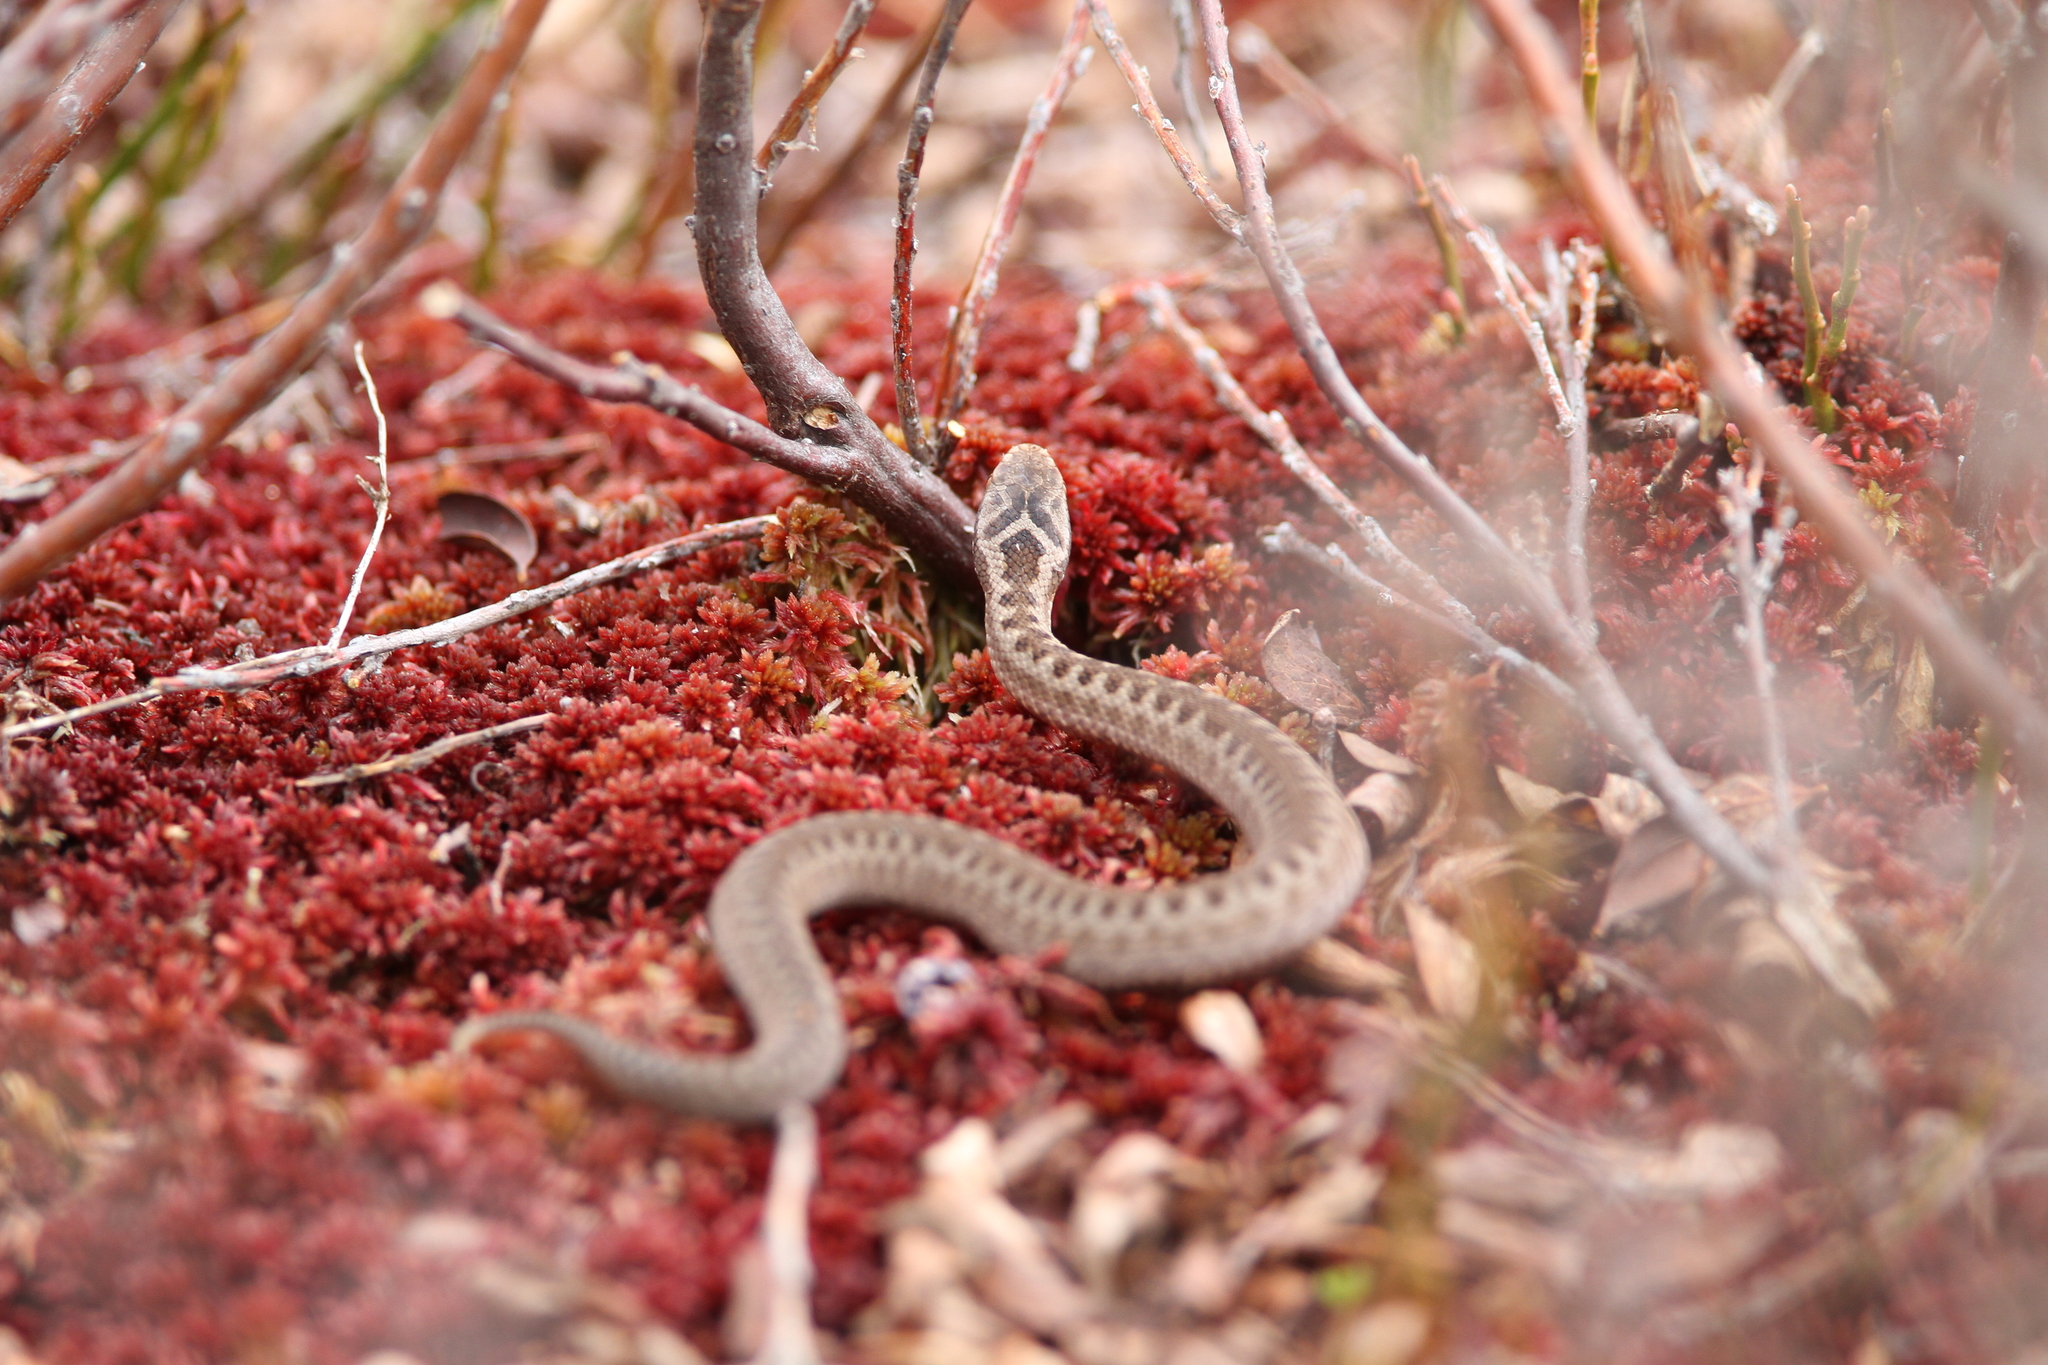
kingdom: Animalia
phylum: Chordata
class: Squamata
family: Viperidae
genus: Vipera
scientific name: Vipera berus
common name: Adder
